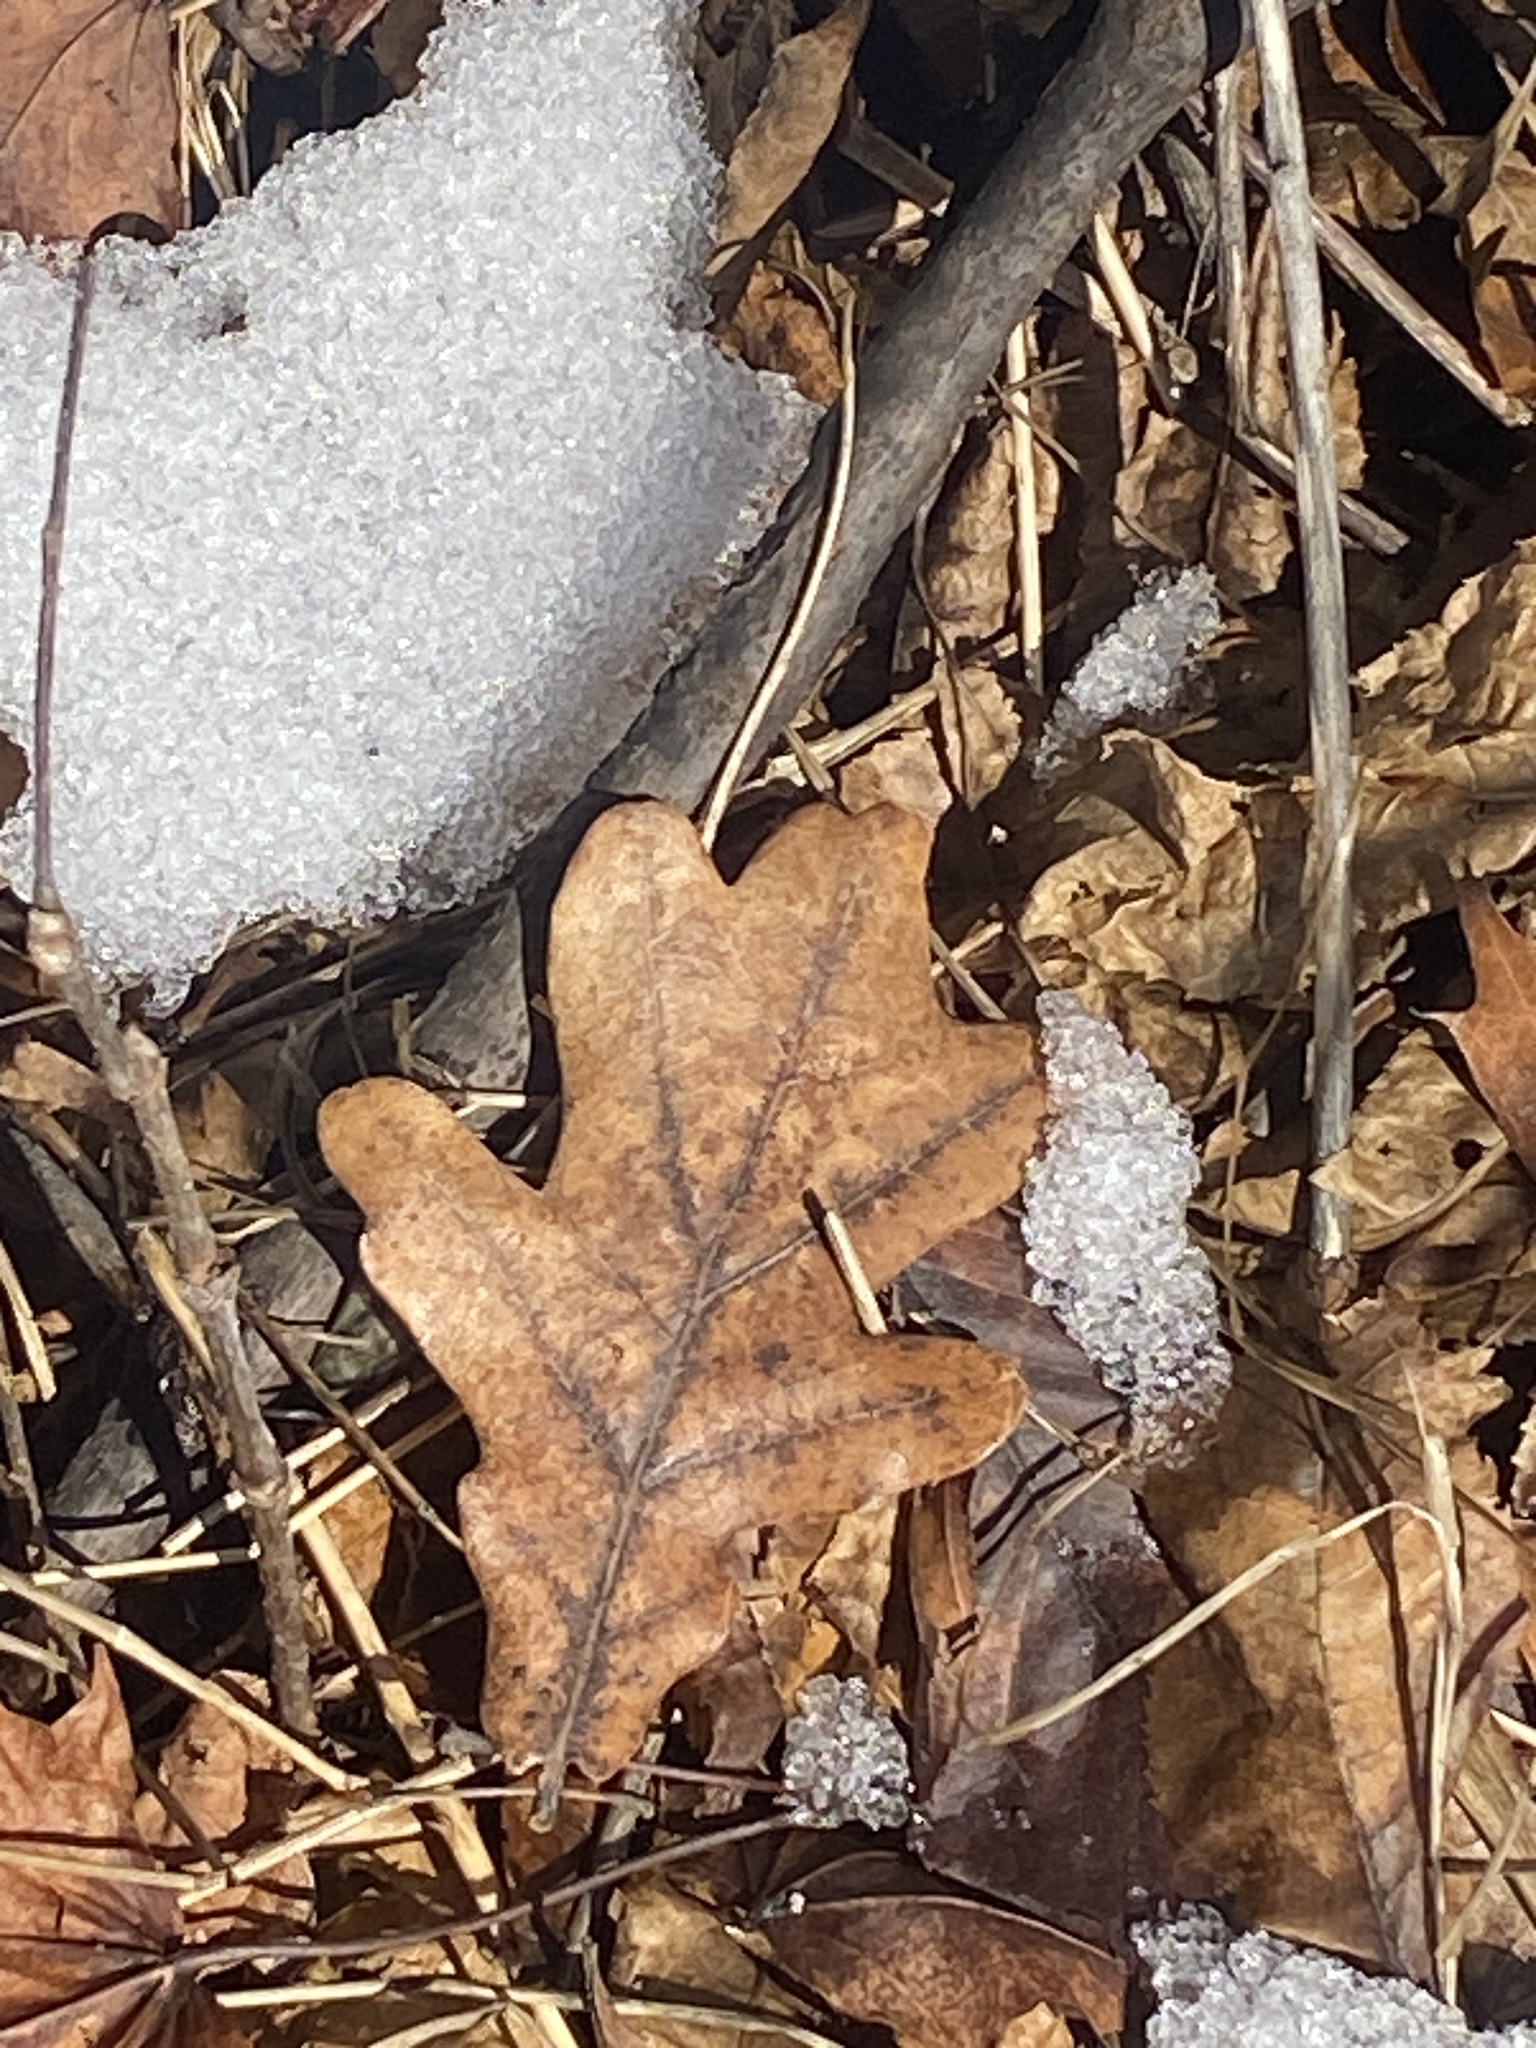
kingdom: Plantae
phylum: Tracheophyta
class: Magnoliopsida
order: Fagales
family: Fagaceae
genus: Quercus
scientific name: Quercus alba
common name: White oak
